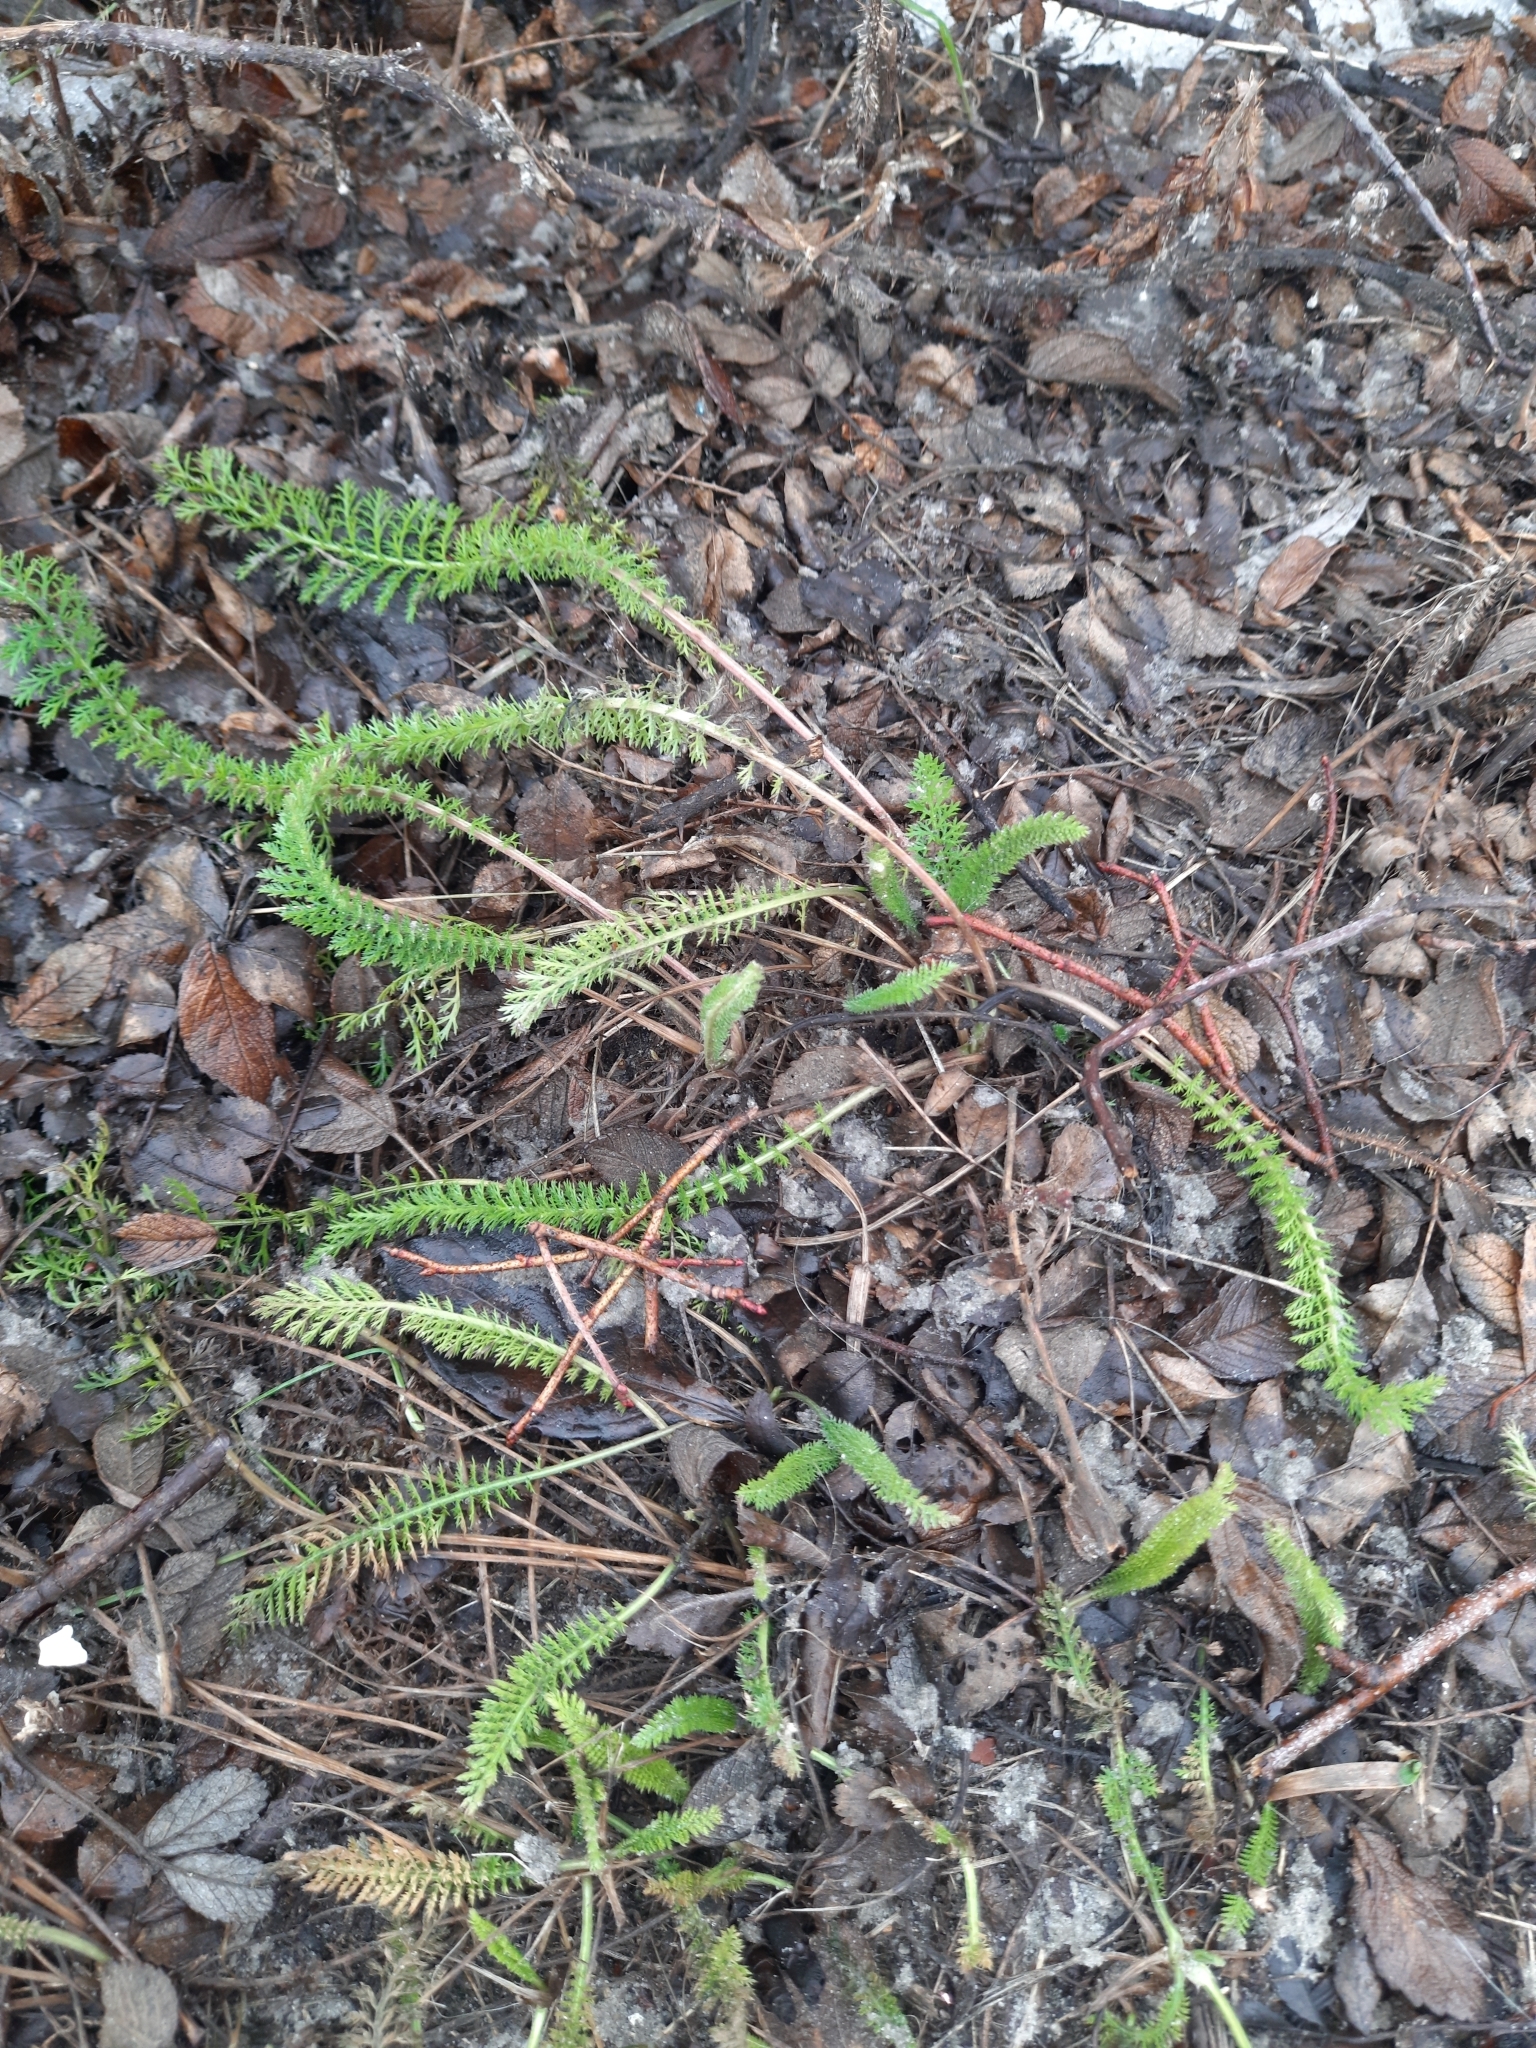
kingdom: Plantae
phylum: Tracheophyta
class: Magnoliopsida
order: Asterales
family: Asteraceae
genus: Achillea
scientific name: Achillea millefolium
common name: Yarrow
